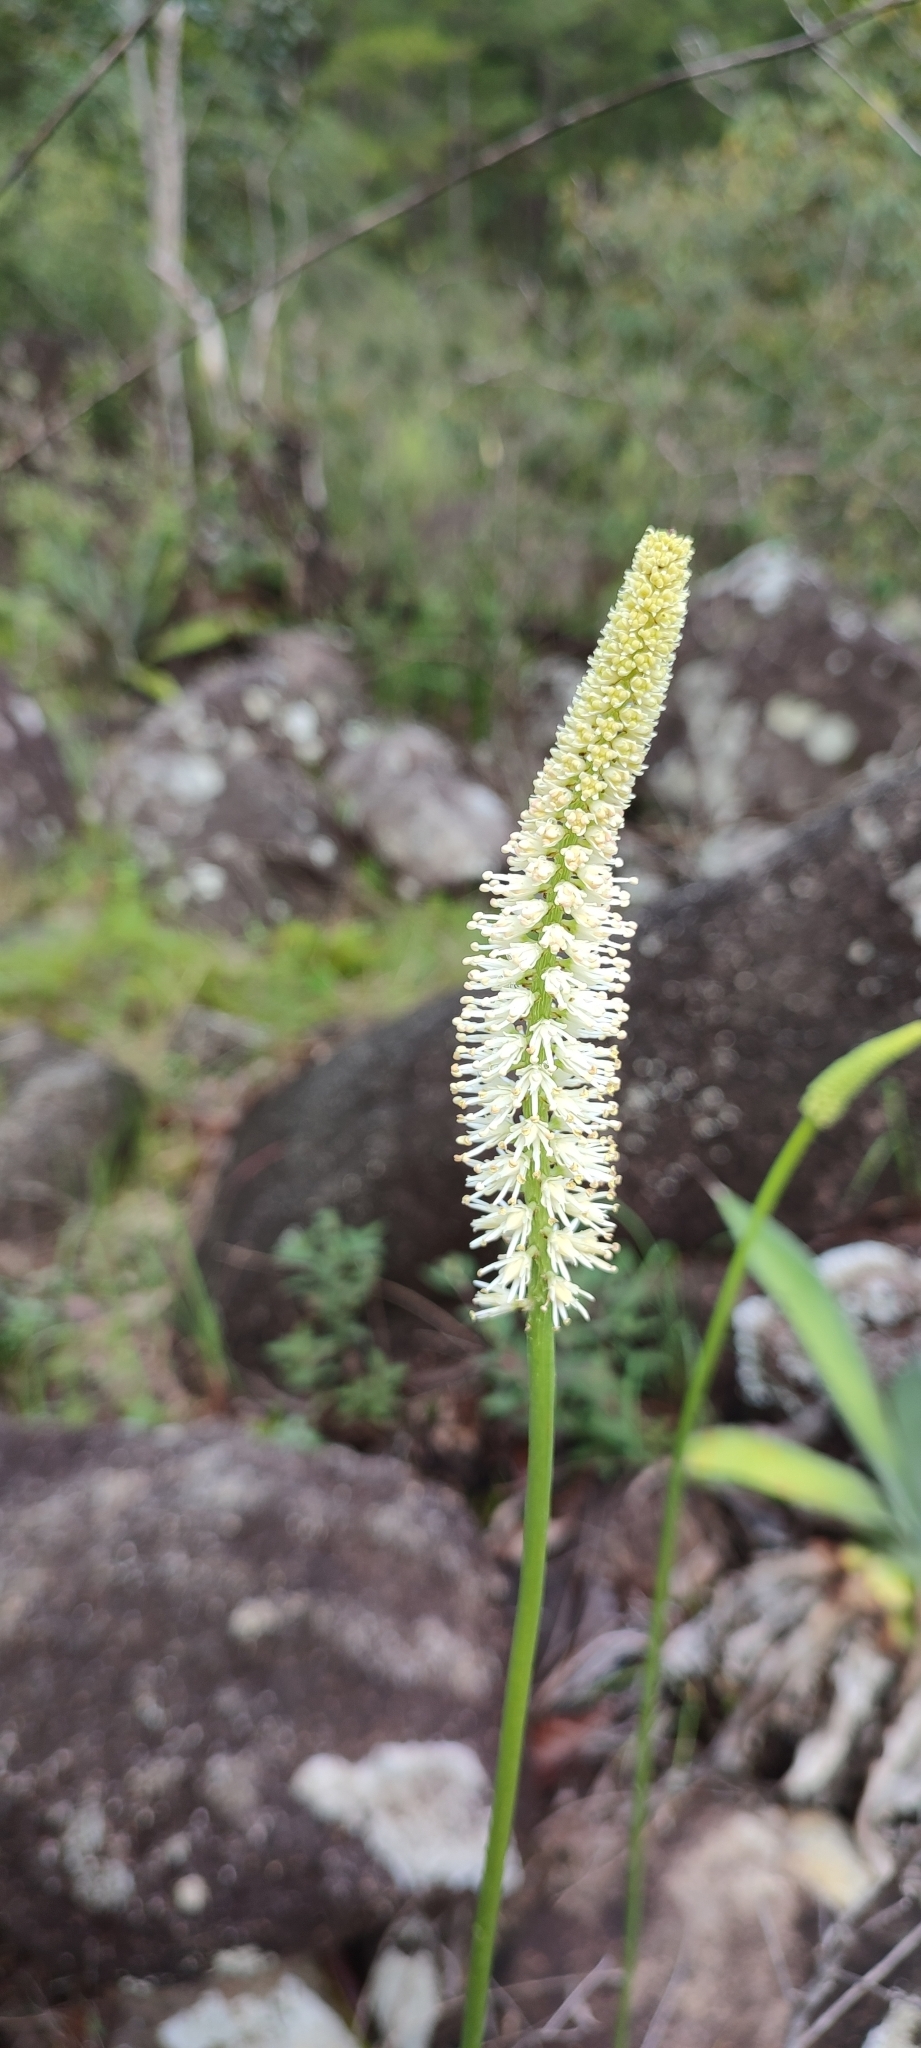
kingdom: Plantae
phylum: Tracheophyta
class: Liliopsida
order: Liliales
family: Melanthiaceae
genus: Schoenocaulon
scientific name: Schoenocaulon officinale
